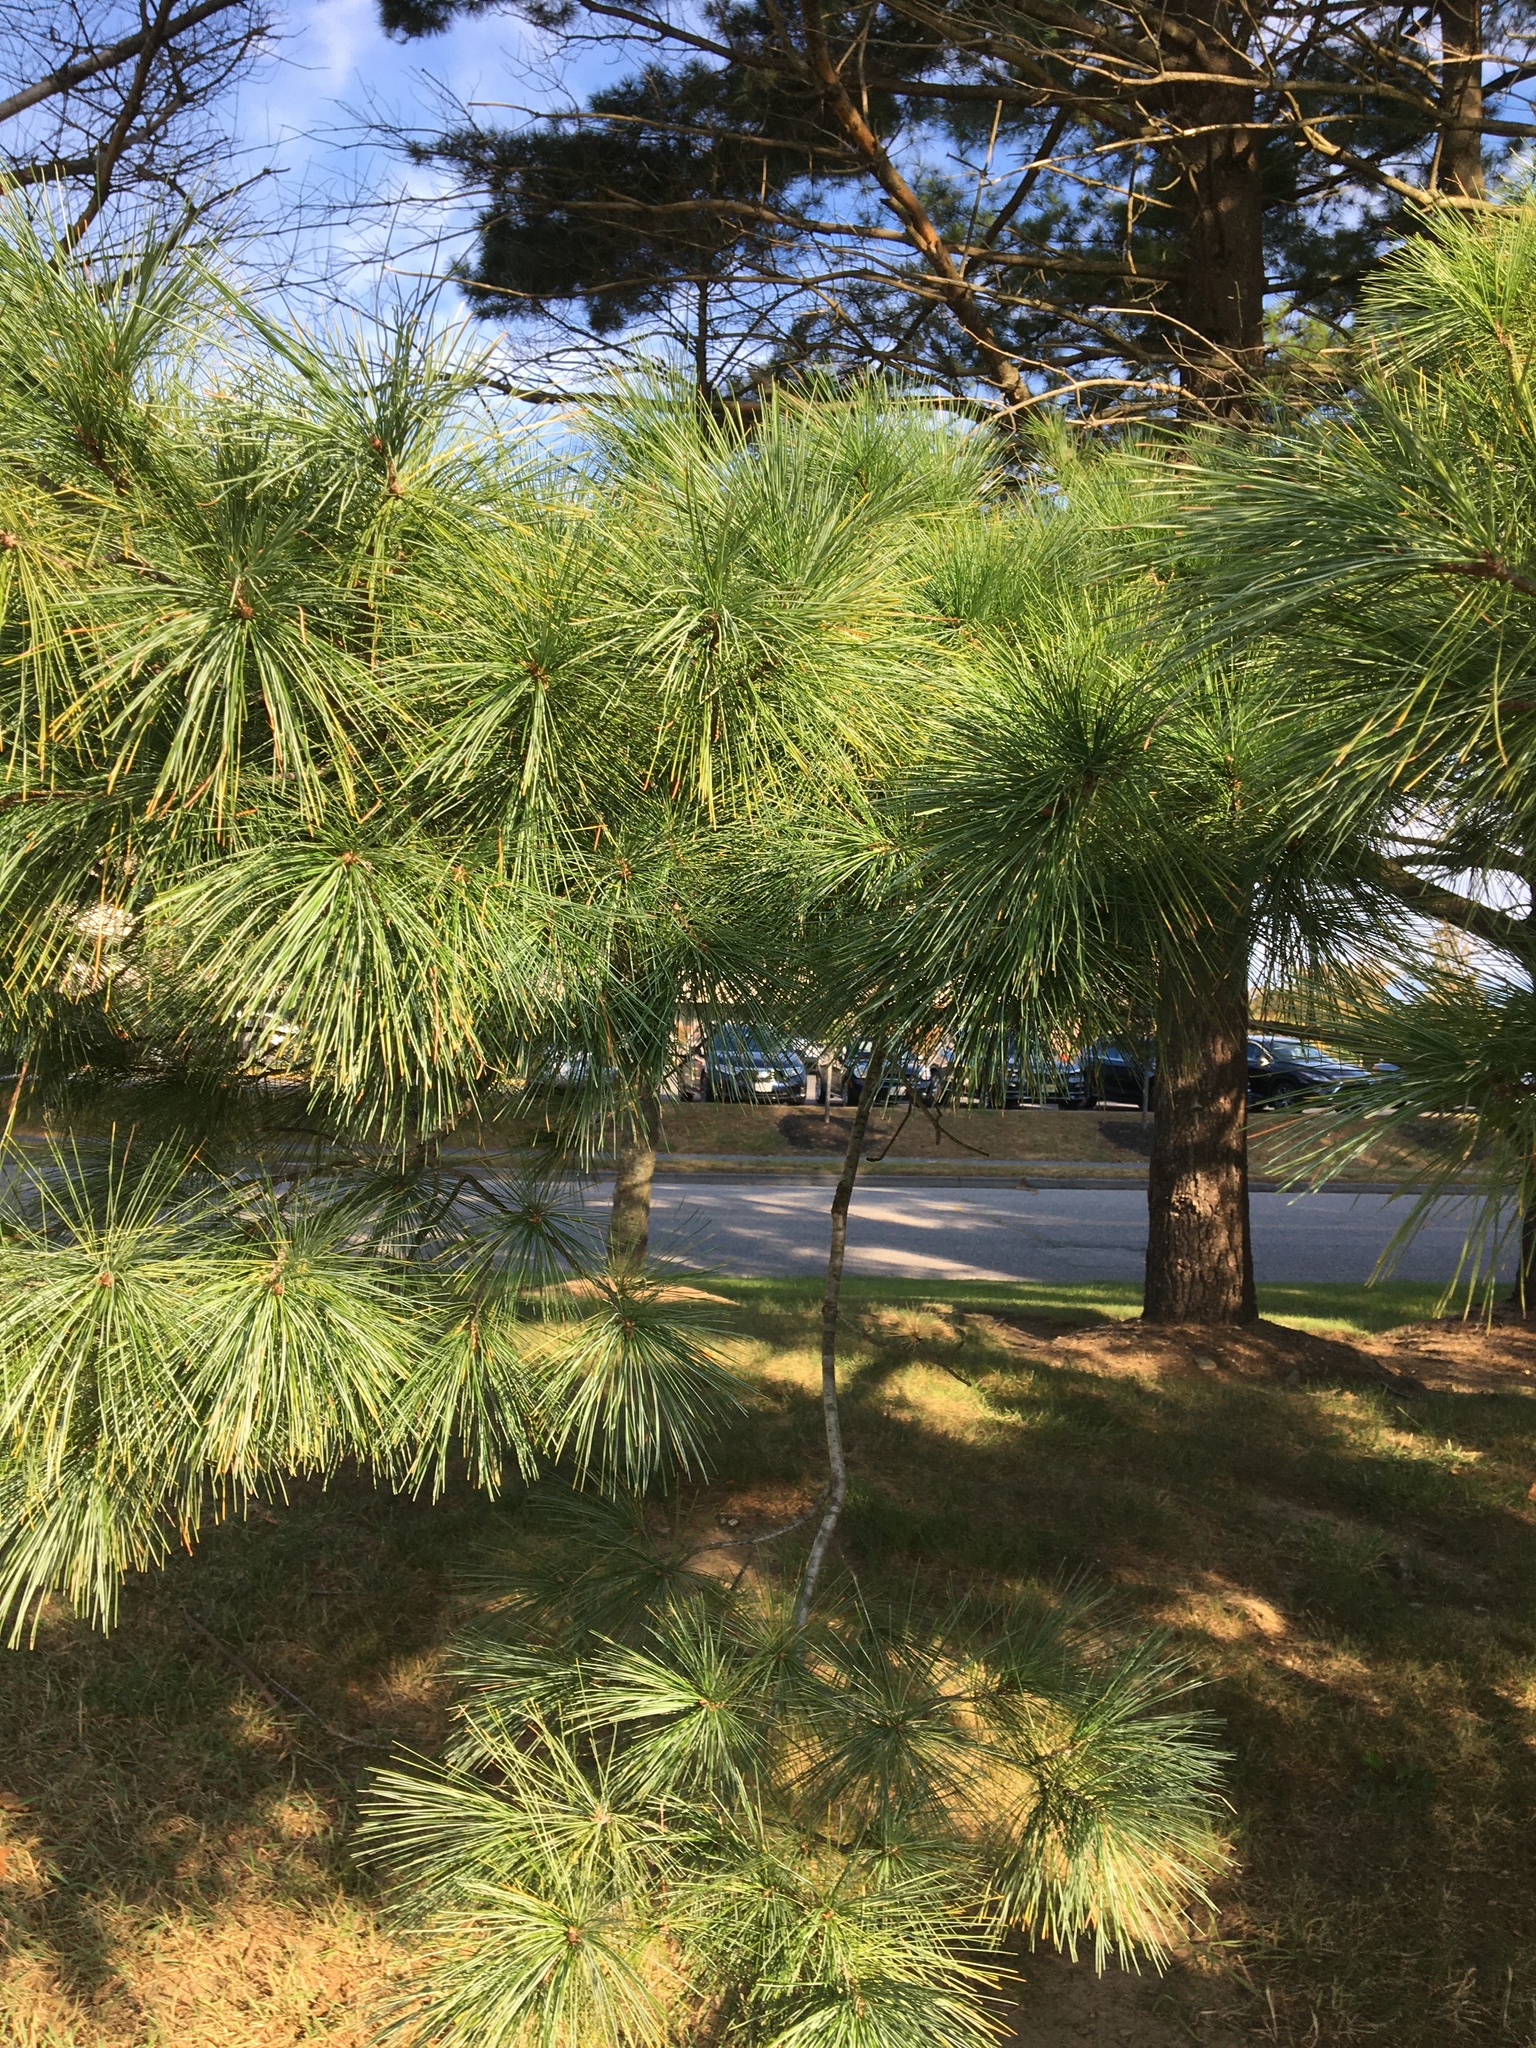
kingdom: Plantae
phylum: Tracheophyta
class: Pinopsida
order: Pinales
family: Pinaceae
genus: Pinus
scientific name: Pinus strobus
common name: Weymouth pine
